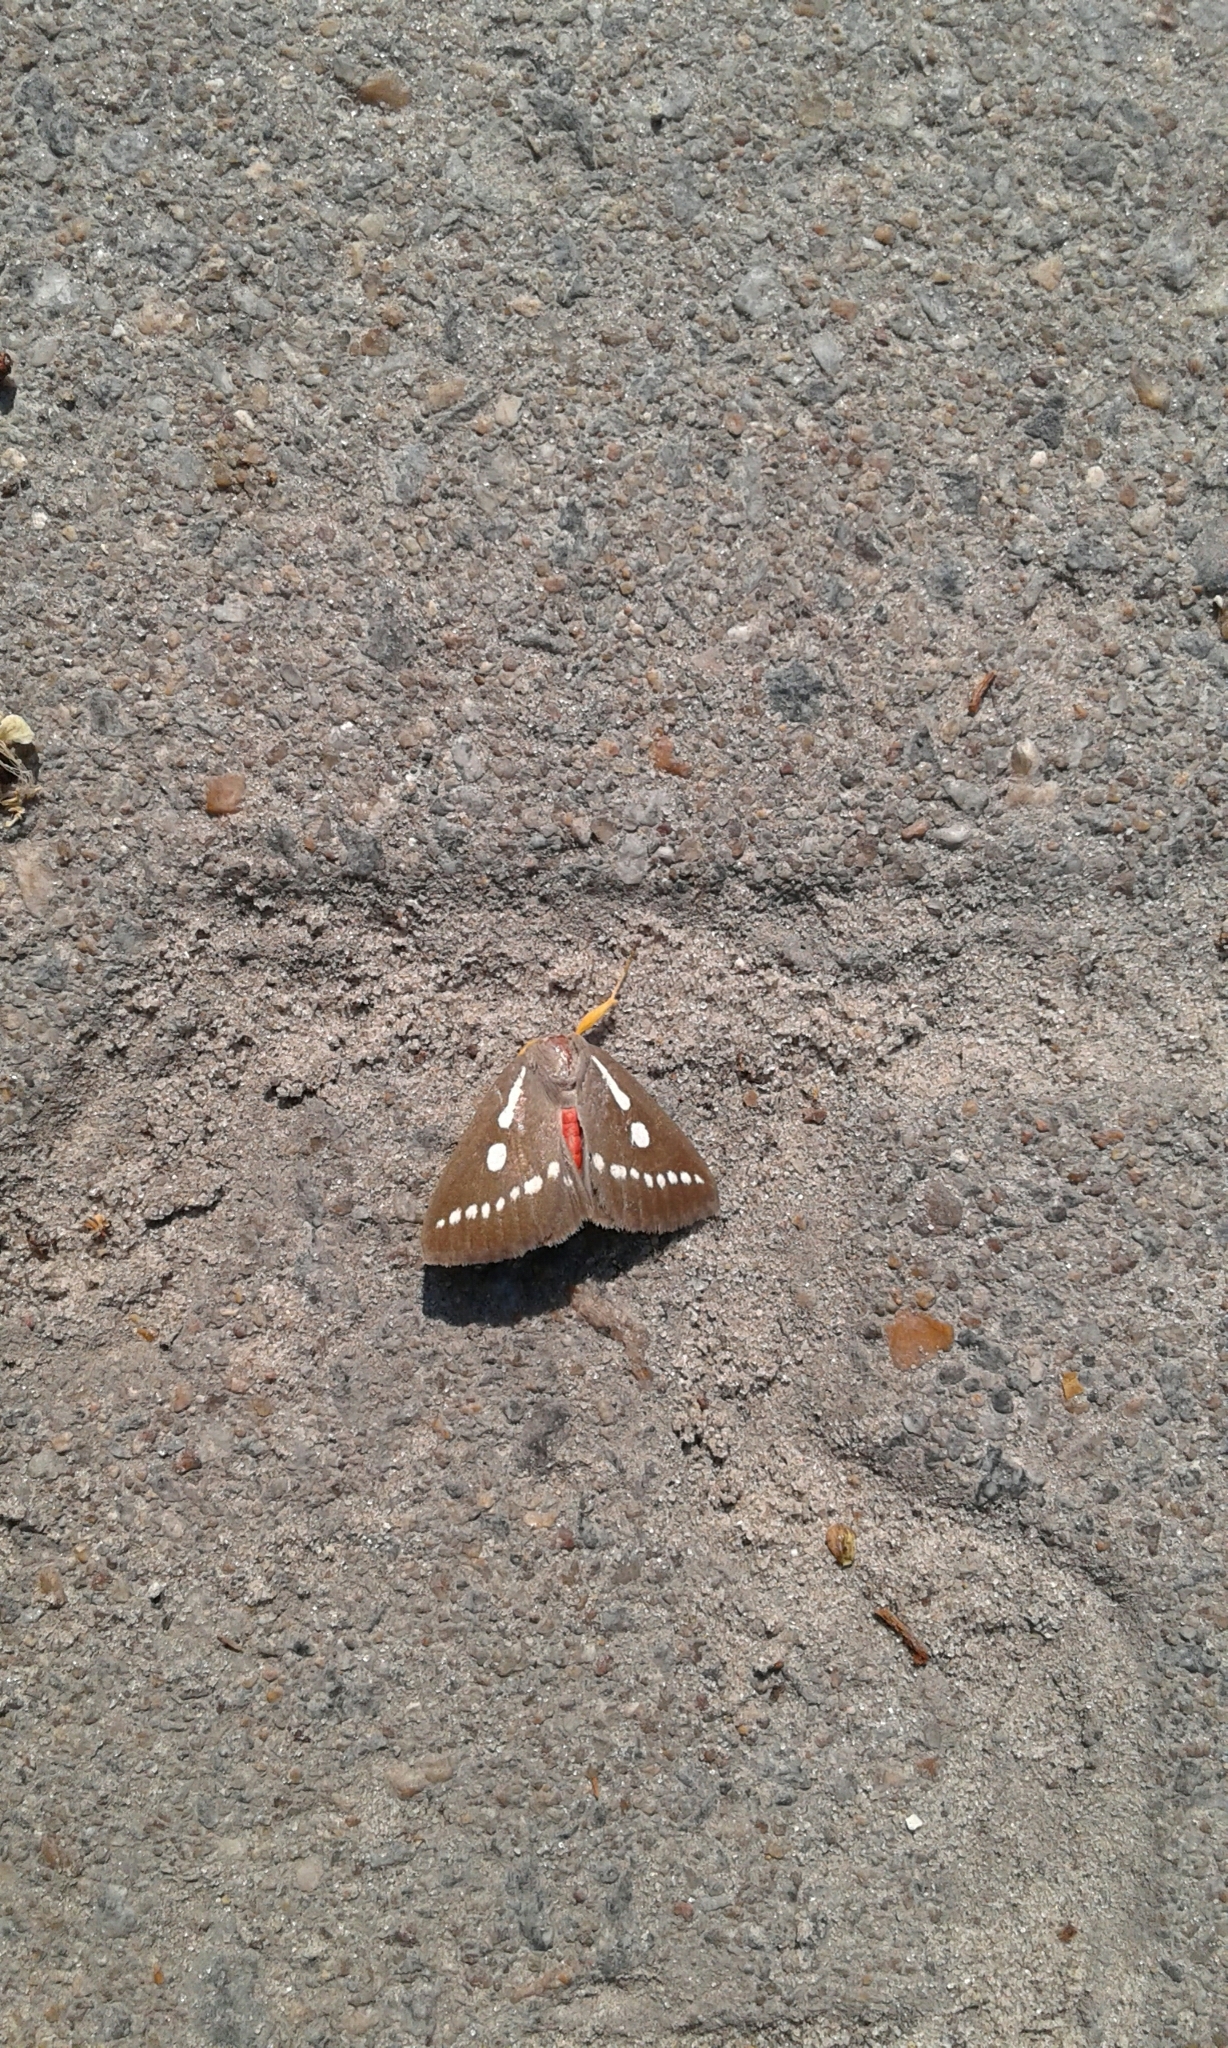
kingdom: Animalia
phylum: Arthropoda
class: Insecta
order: Lepidoptera
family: Erebidae
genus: Calesia
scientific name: Calesia zambesita
